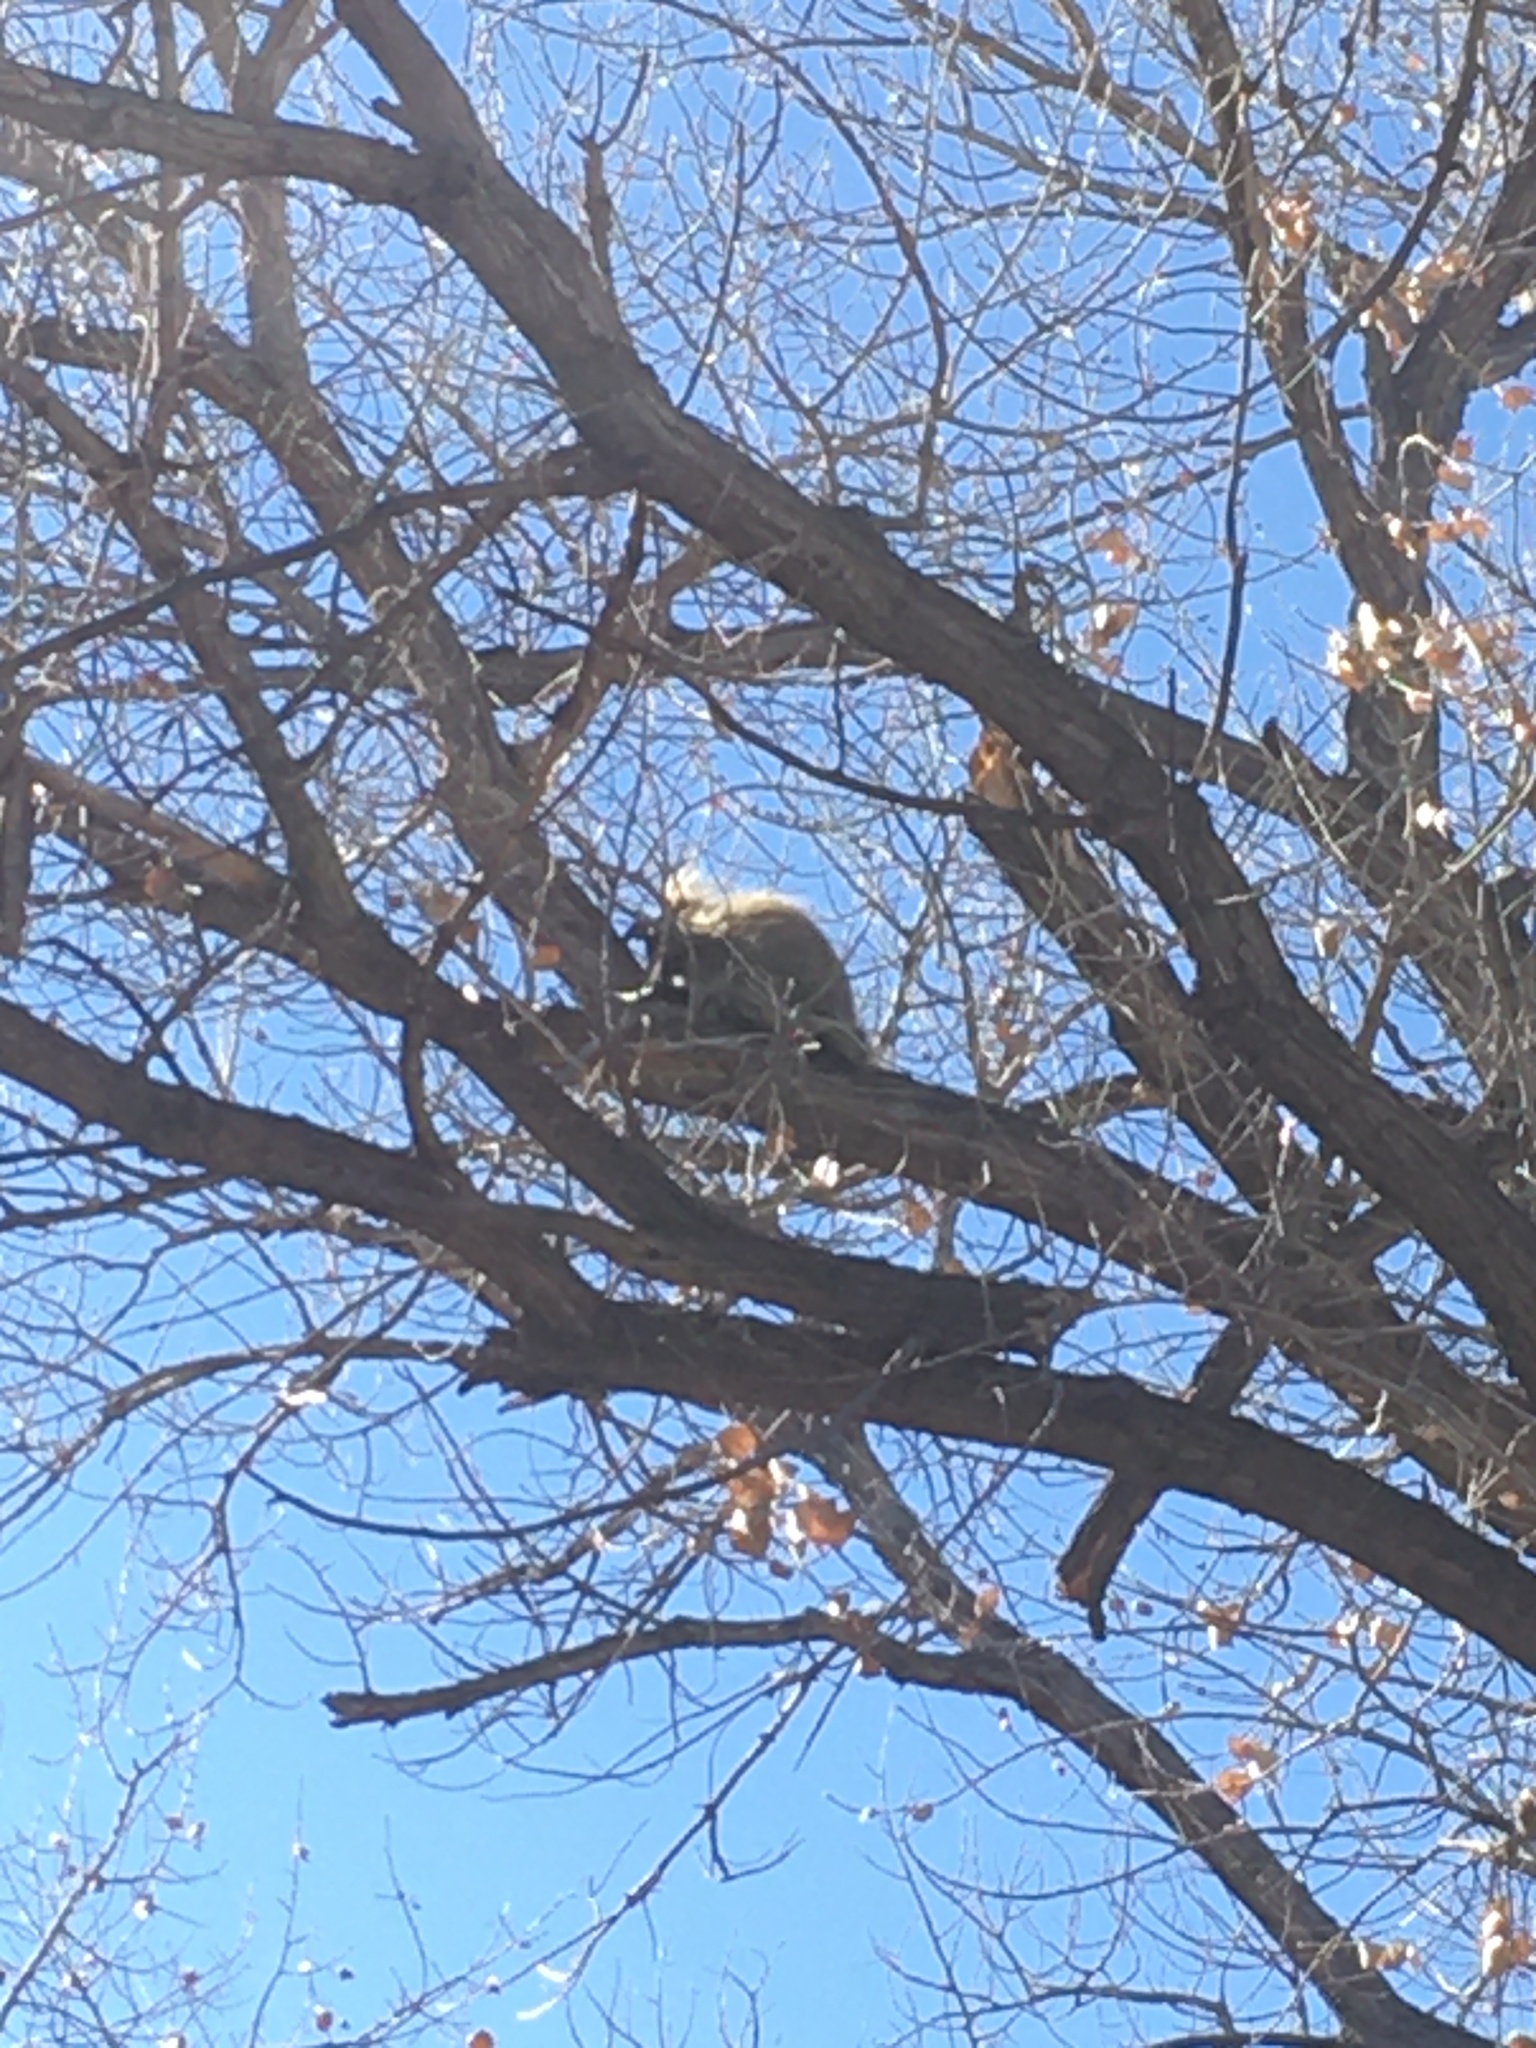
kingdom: Animalia
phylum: Chordata
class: Mammalia
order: Rodentia
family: Erethizontidae
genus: Erethizon
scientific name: Erethizon dorsatus
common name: North american porcupine
